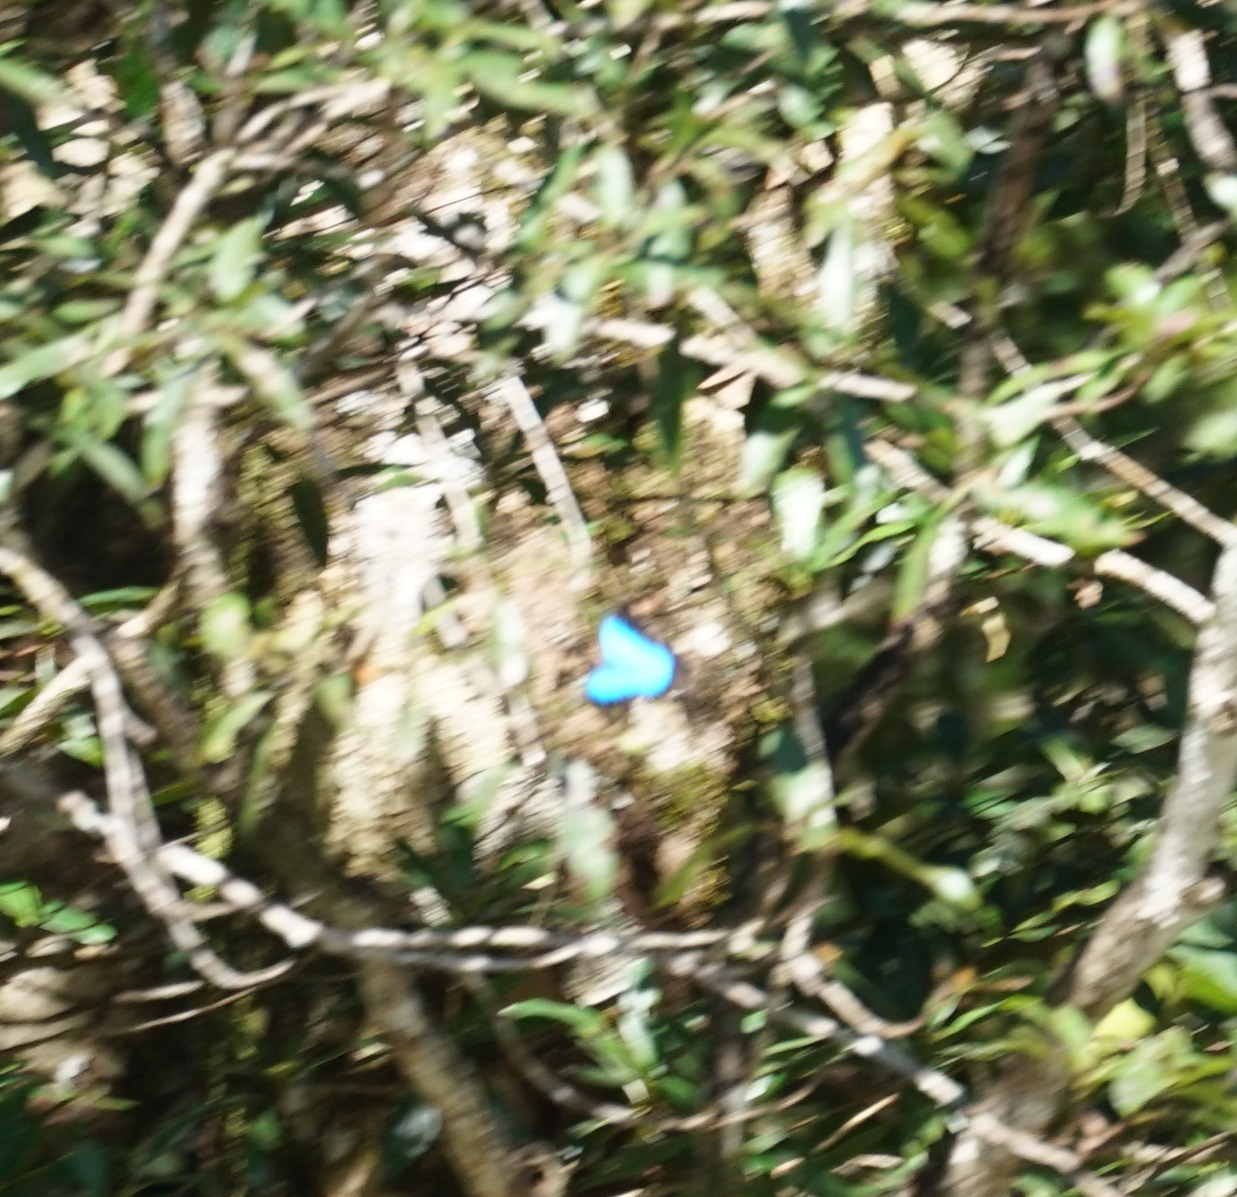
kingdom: Animalia
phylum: Arthropoda
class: Insecta
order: Lepidoptera
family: Papilionidae
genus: Papilio
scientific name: Papilio ulysses
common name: Blue emperor
